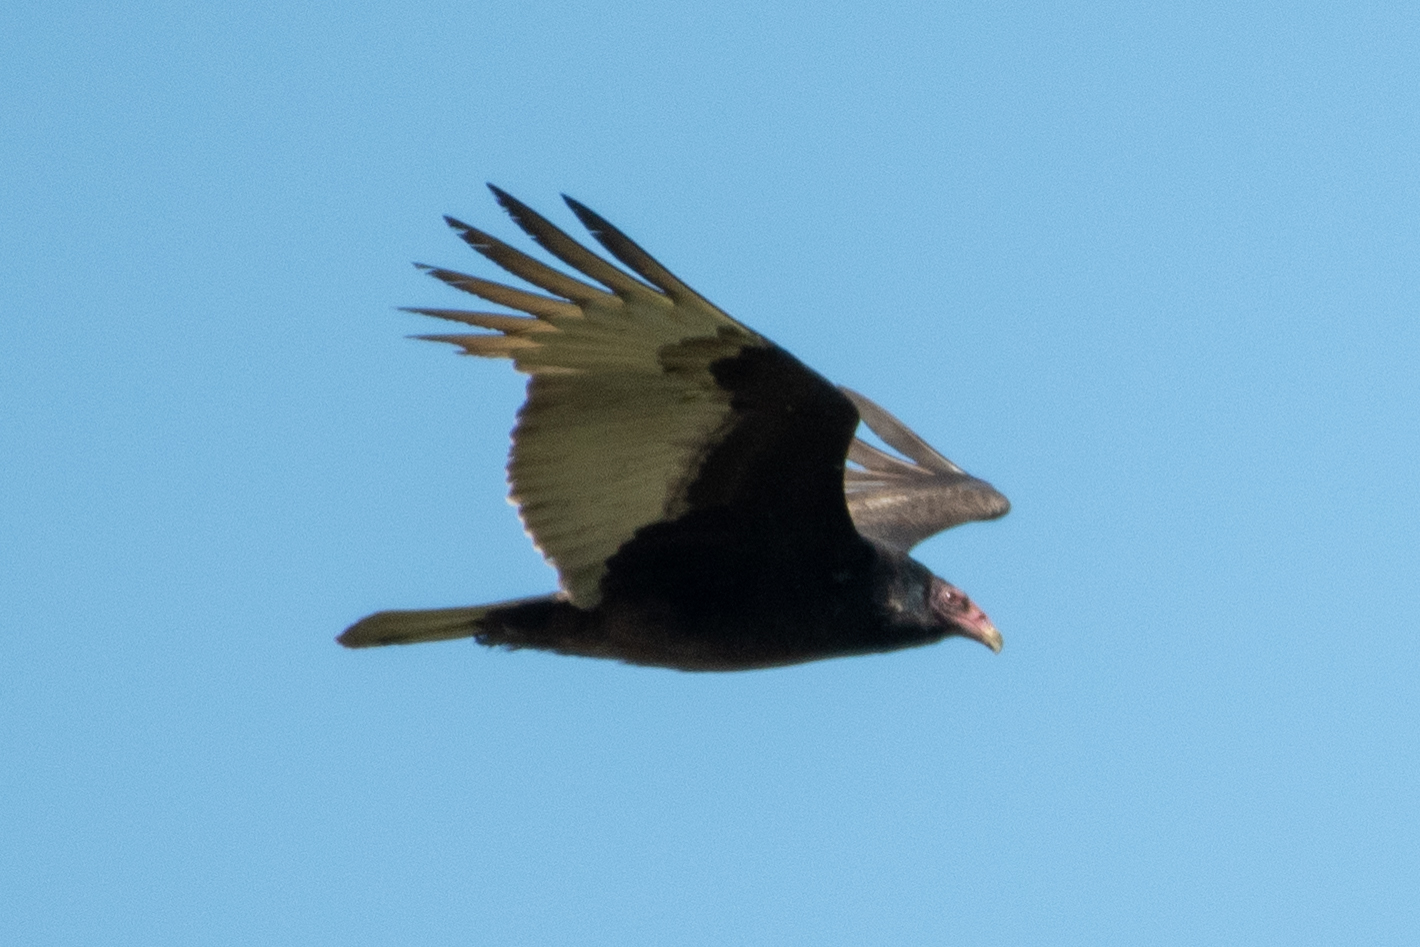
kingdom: Animalia
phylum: Chordata
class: Aves
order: Accipitriformes
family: Cathartidae
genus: Cathartes
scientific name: Cathartes aura
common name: Turkey vulture
